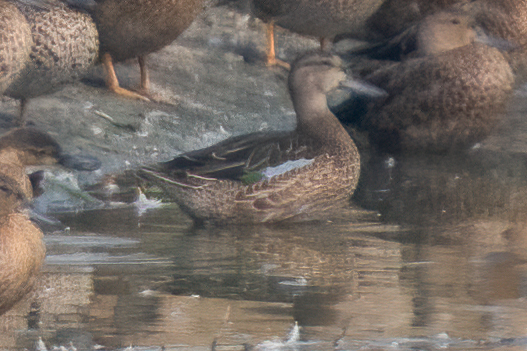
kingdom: Animalia
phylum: Chordata
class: Aves
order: Anseriformes
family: Anatidae
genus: Spatula
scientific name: Spatula discors
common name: Blue-winged teal
